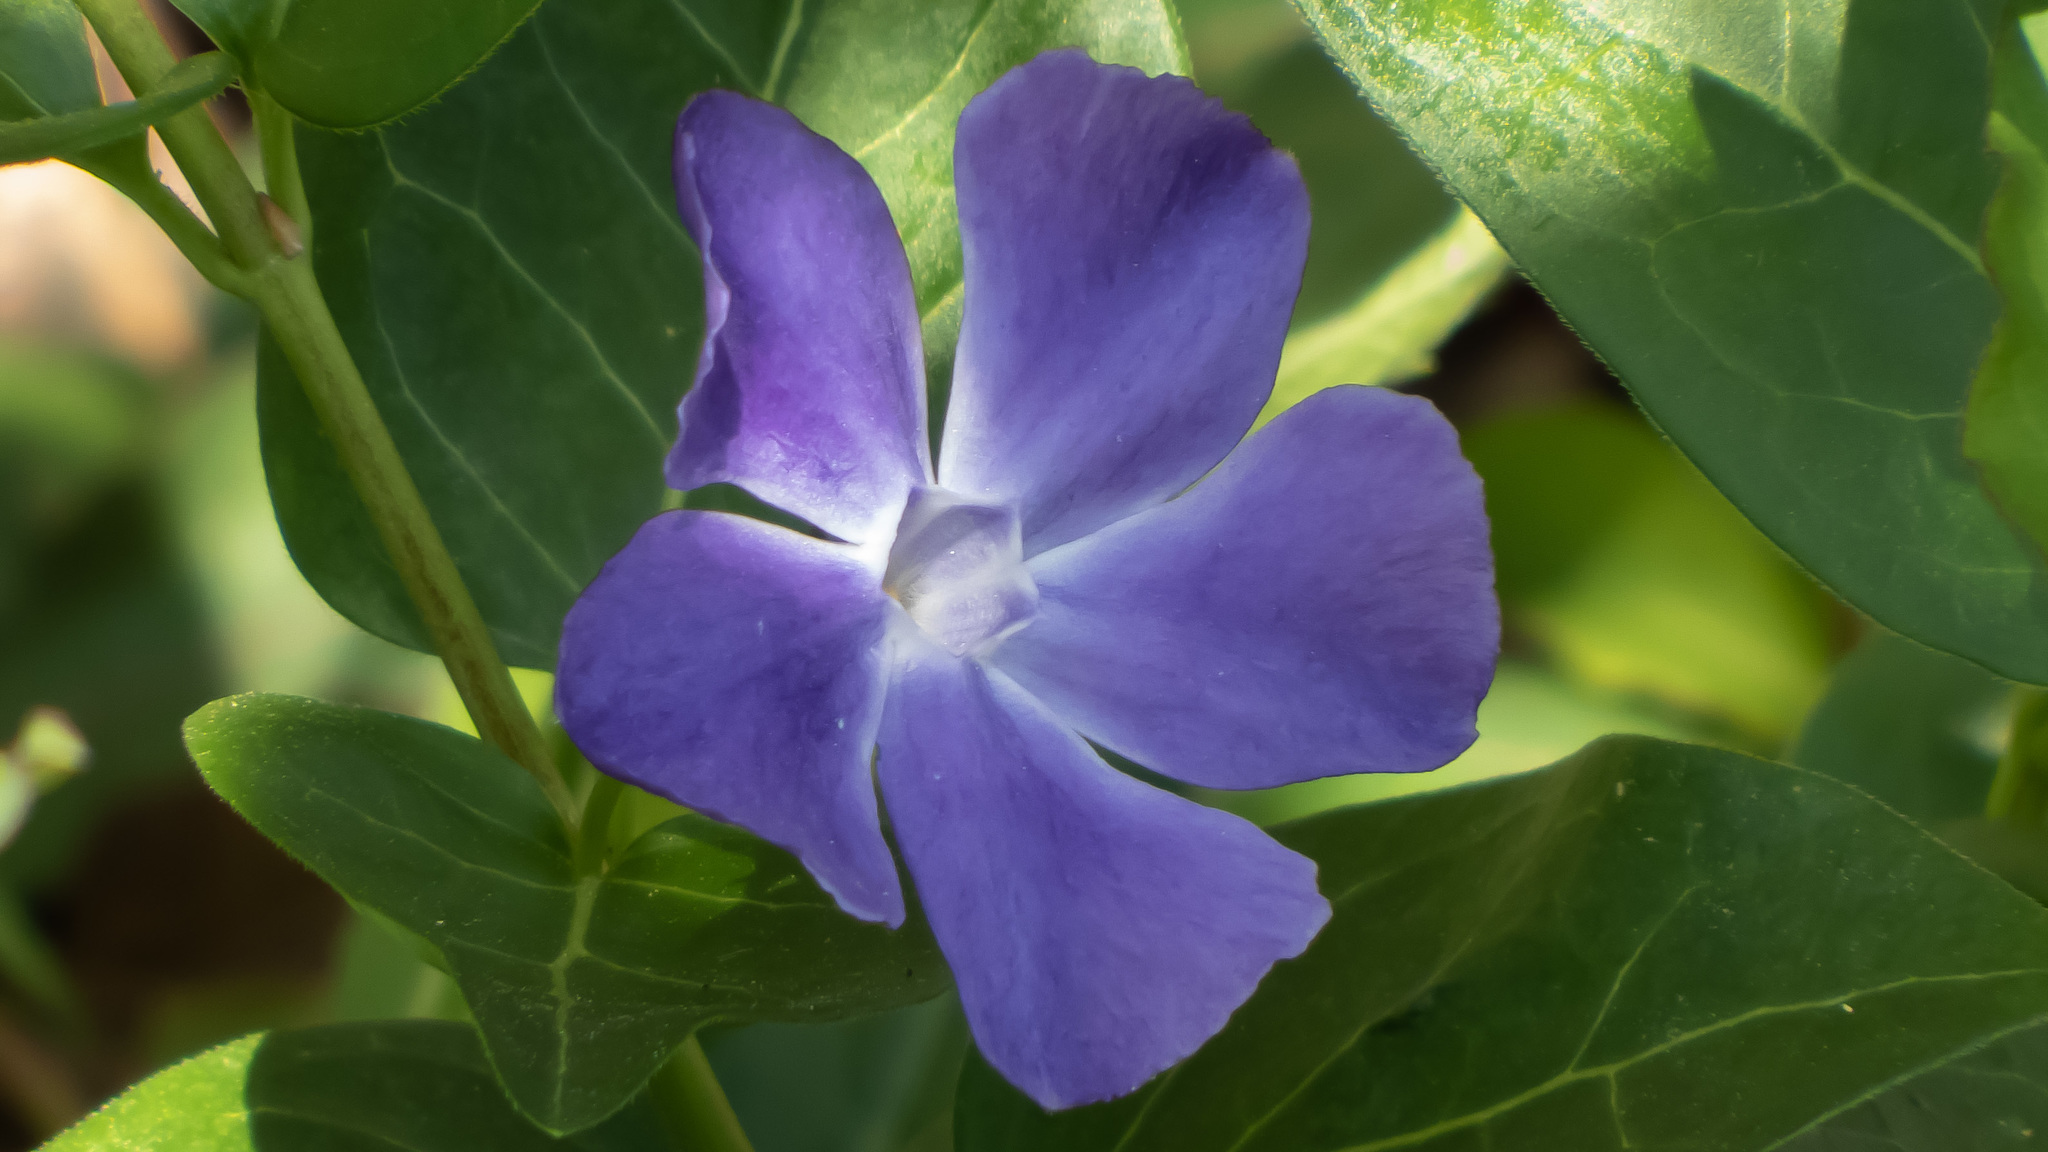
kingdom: Plantae
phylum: Tracheophyta
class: Magnoliopsida
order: Gentianales
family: Apocynaceae
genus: Vinca
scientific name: Vinca major
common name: Greater periwinkle
